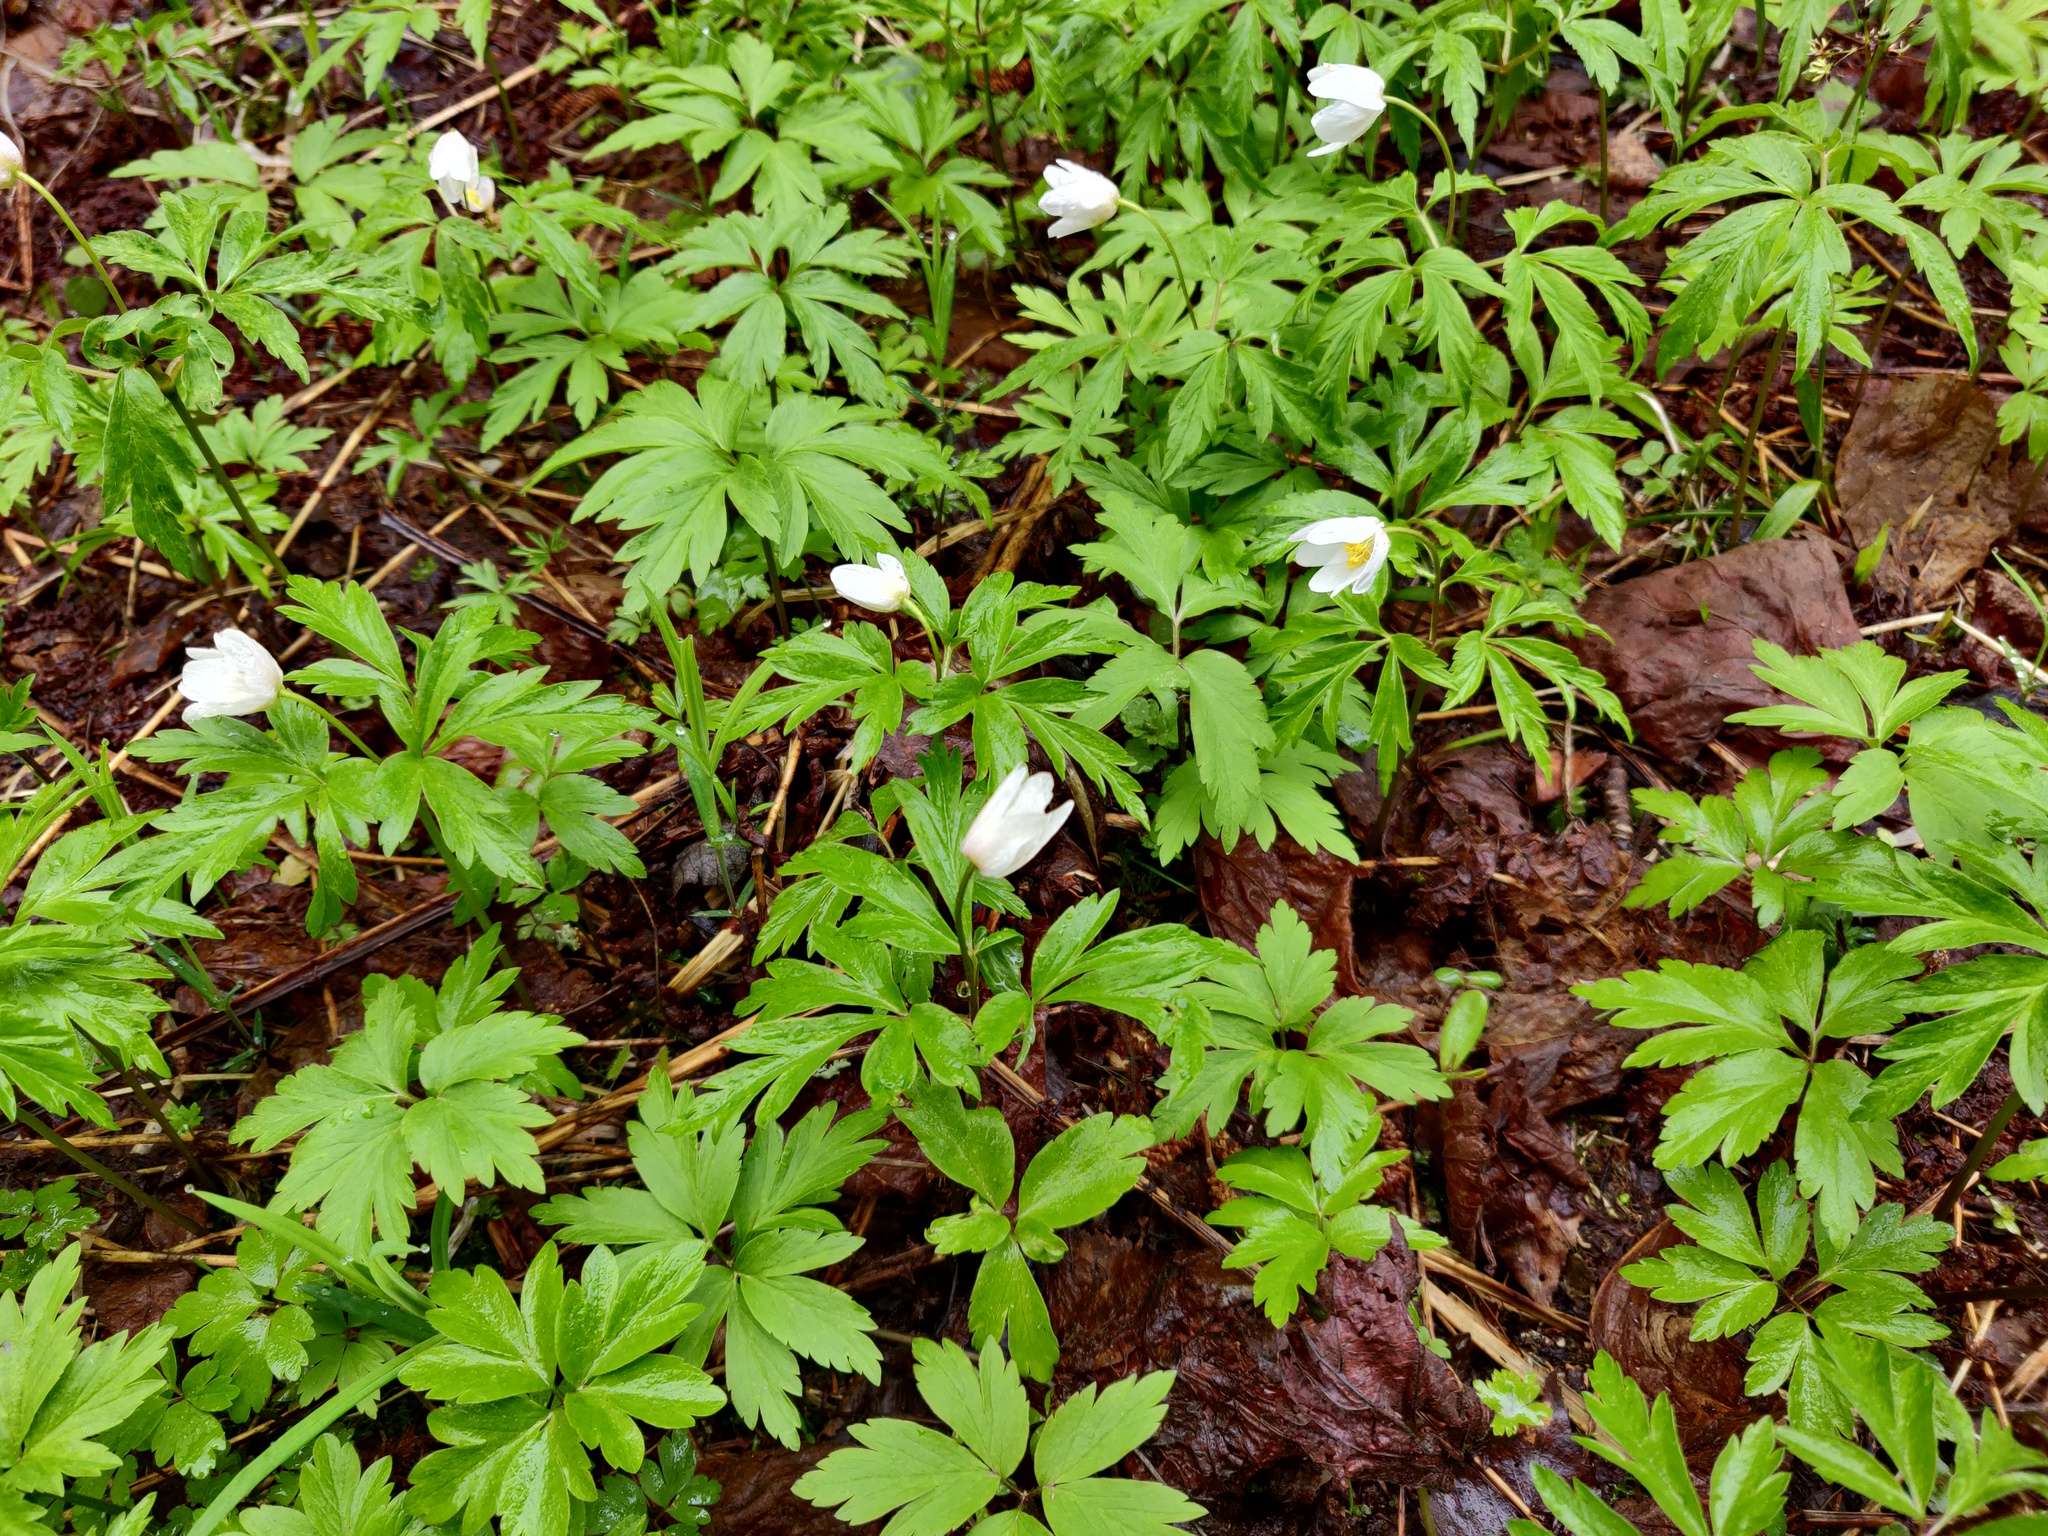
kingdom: Plantae
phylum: Tracheophyta
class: Magnoliopsida
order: Ranunculales
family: Ranunculaceae
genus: Anemone
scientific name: Anemone nemorosa
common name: Wood anemone
